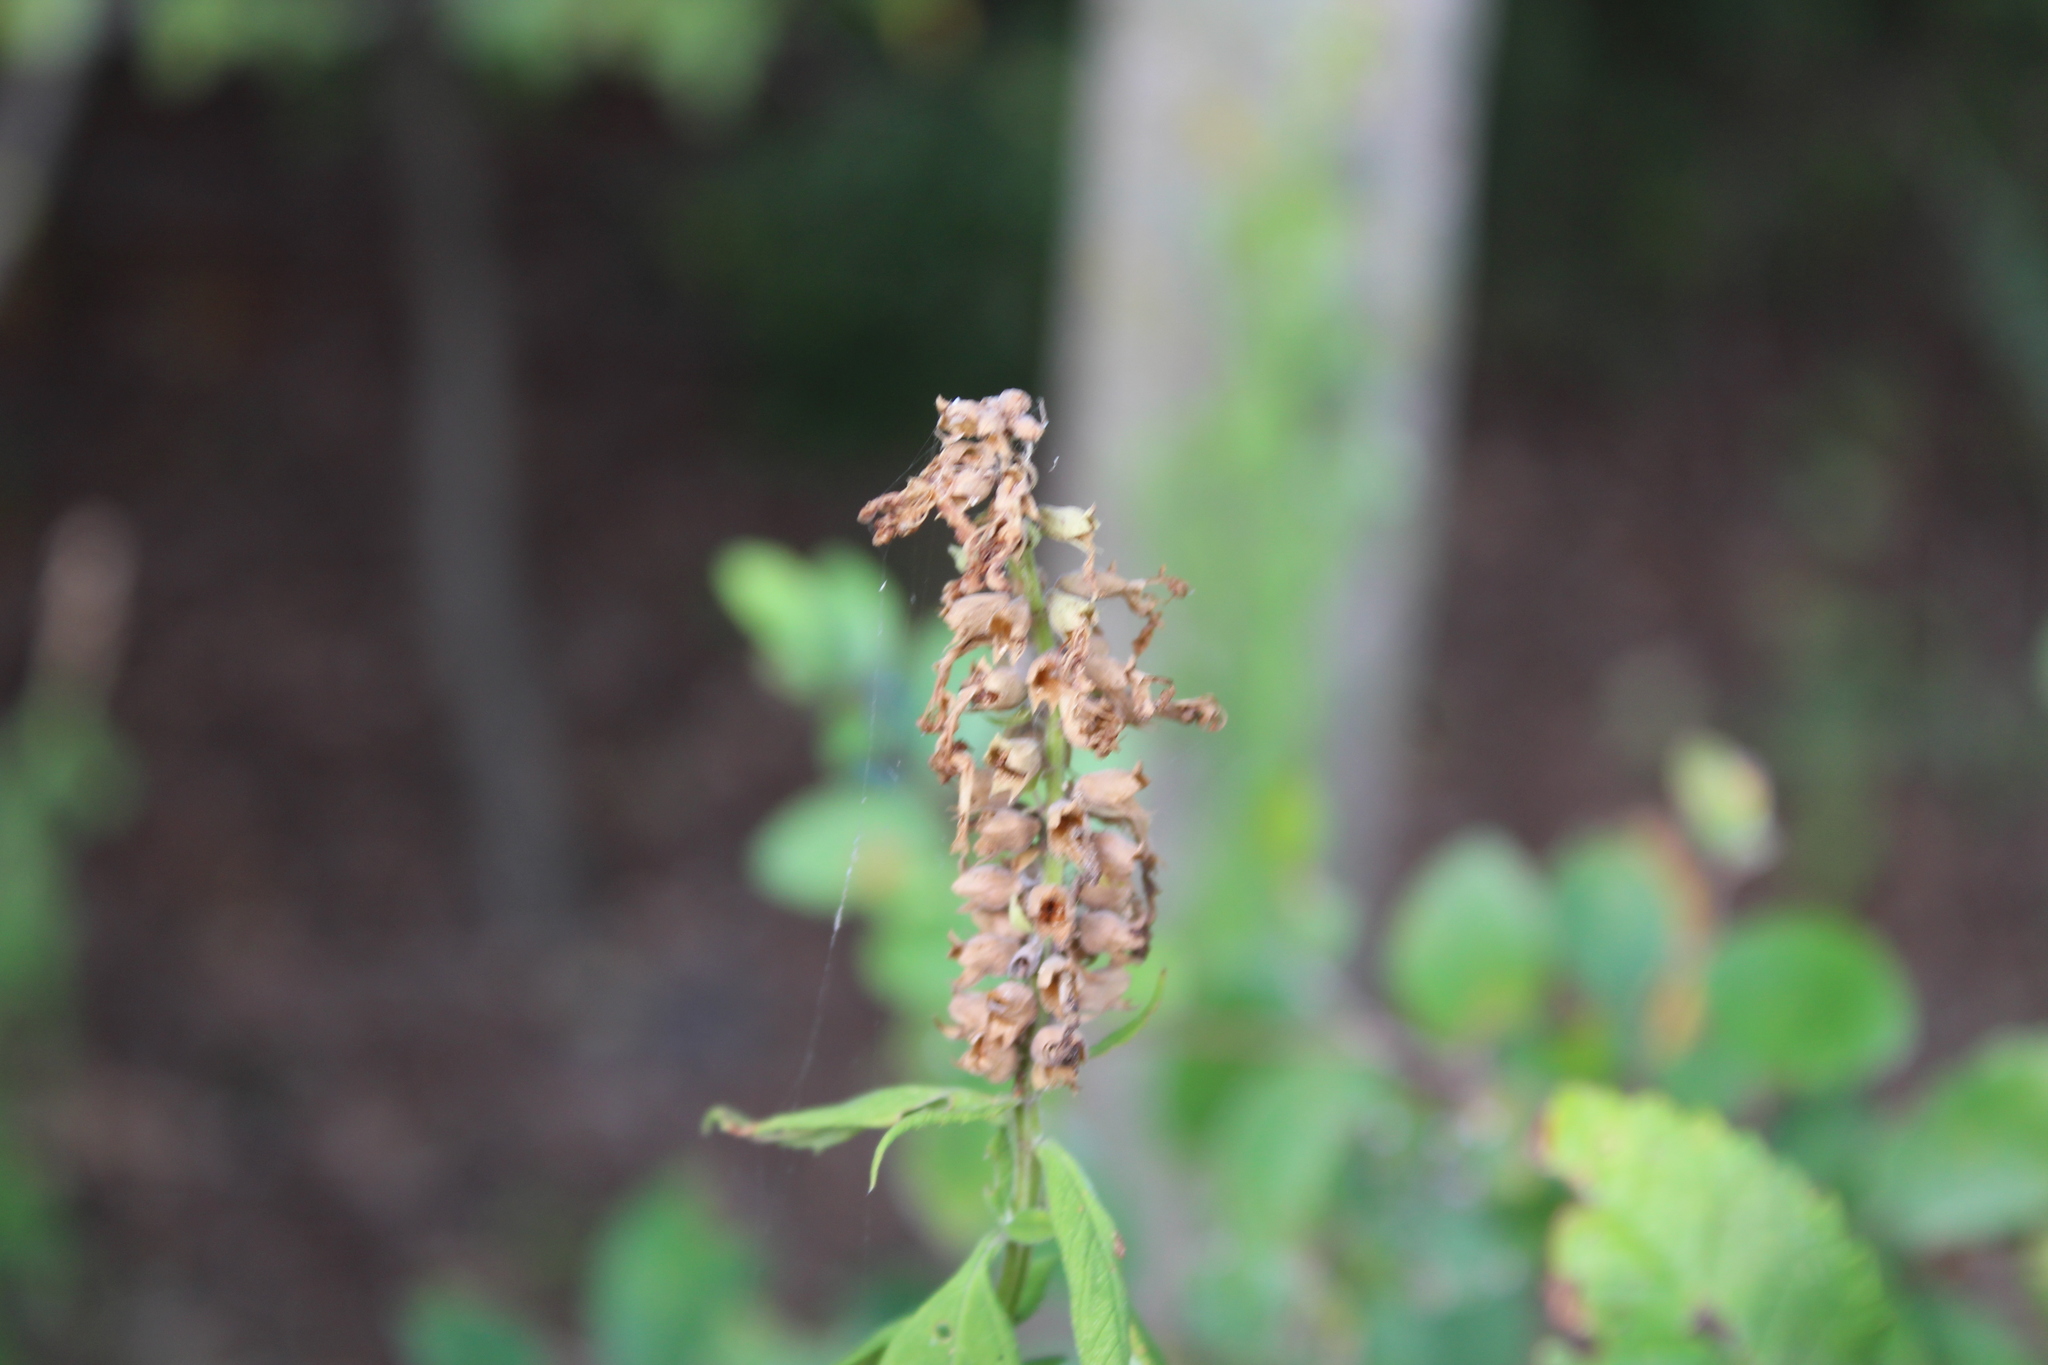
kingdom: Plantae
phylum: Tracheophyta
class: Magnoliopsida
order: Lamiales
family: Lamiaceae
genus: Teucrium
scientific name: Teucrium canadense
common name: American germander
